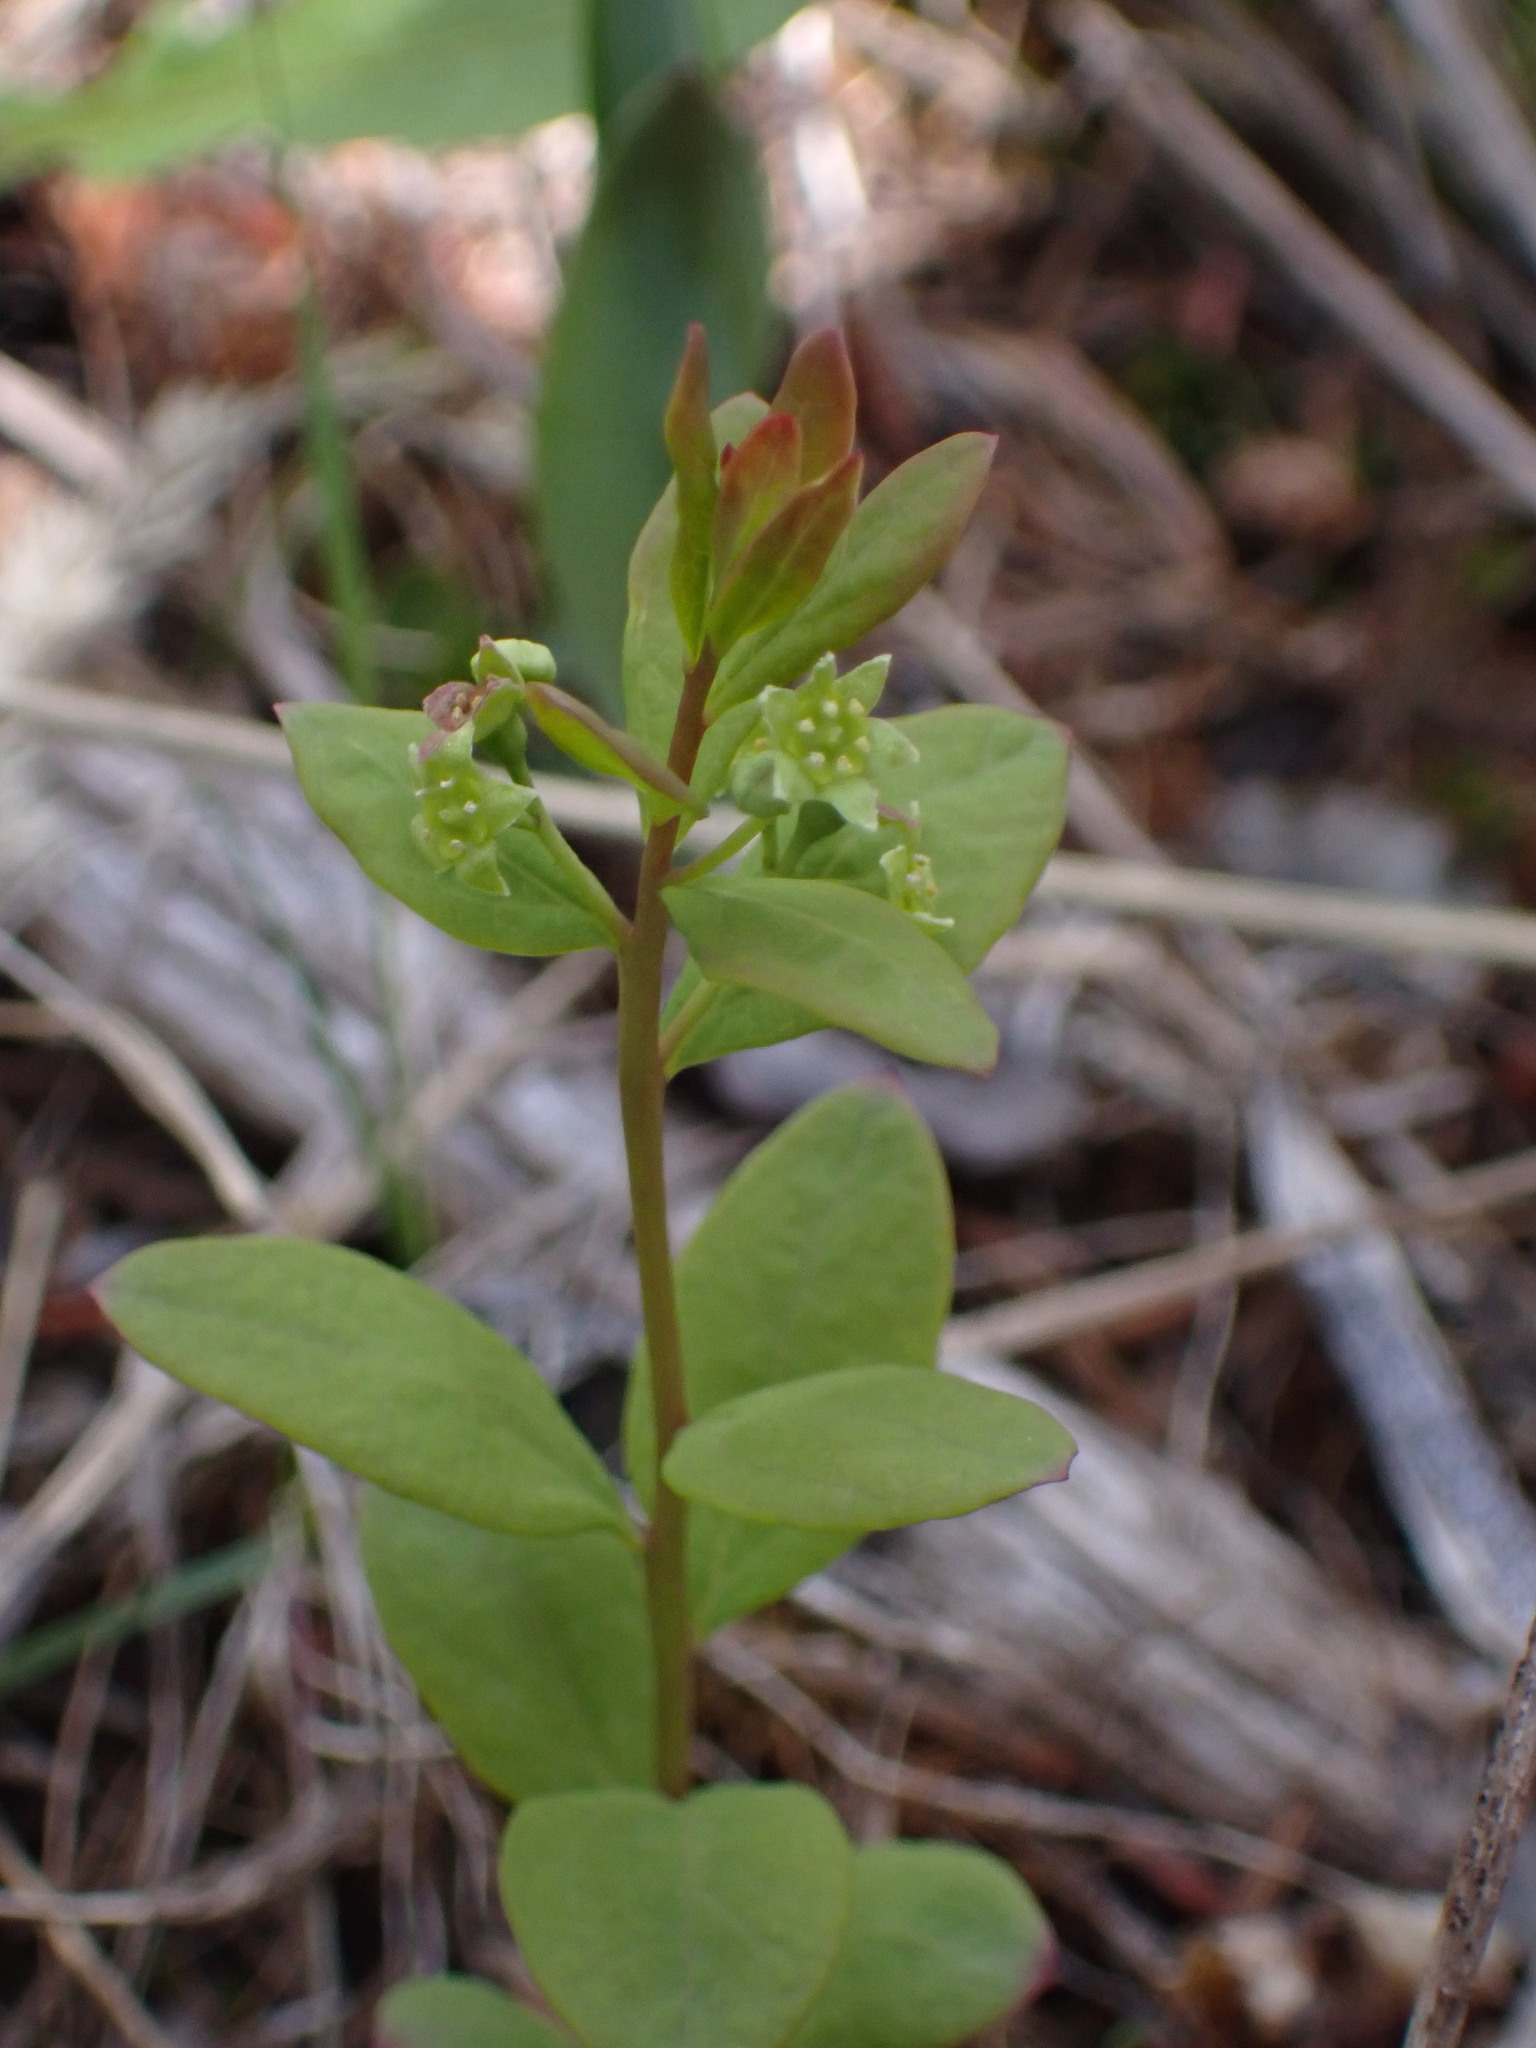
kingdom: Plantae
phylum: Tracheophyta
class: Magnoliopsida
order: Santalales
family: Comandraceae
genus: Geocaulon
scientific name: Geocaulon lividum
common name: Earthberry
